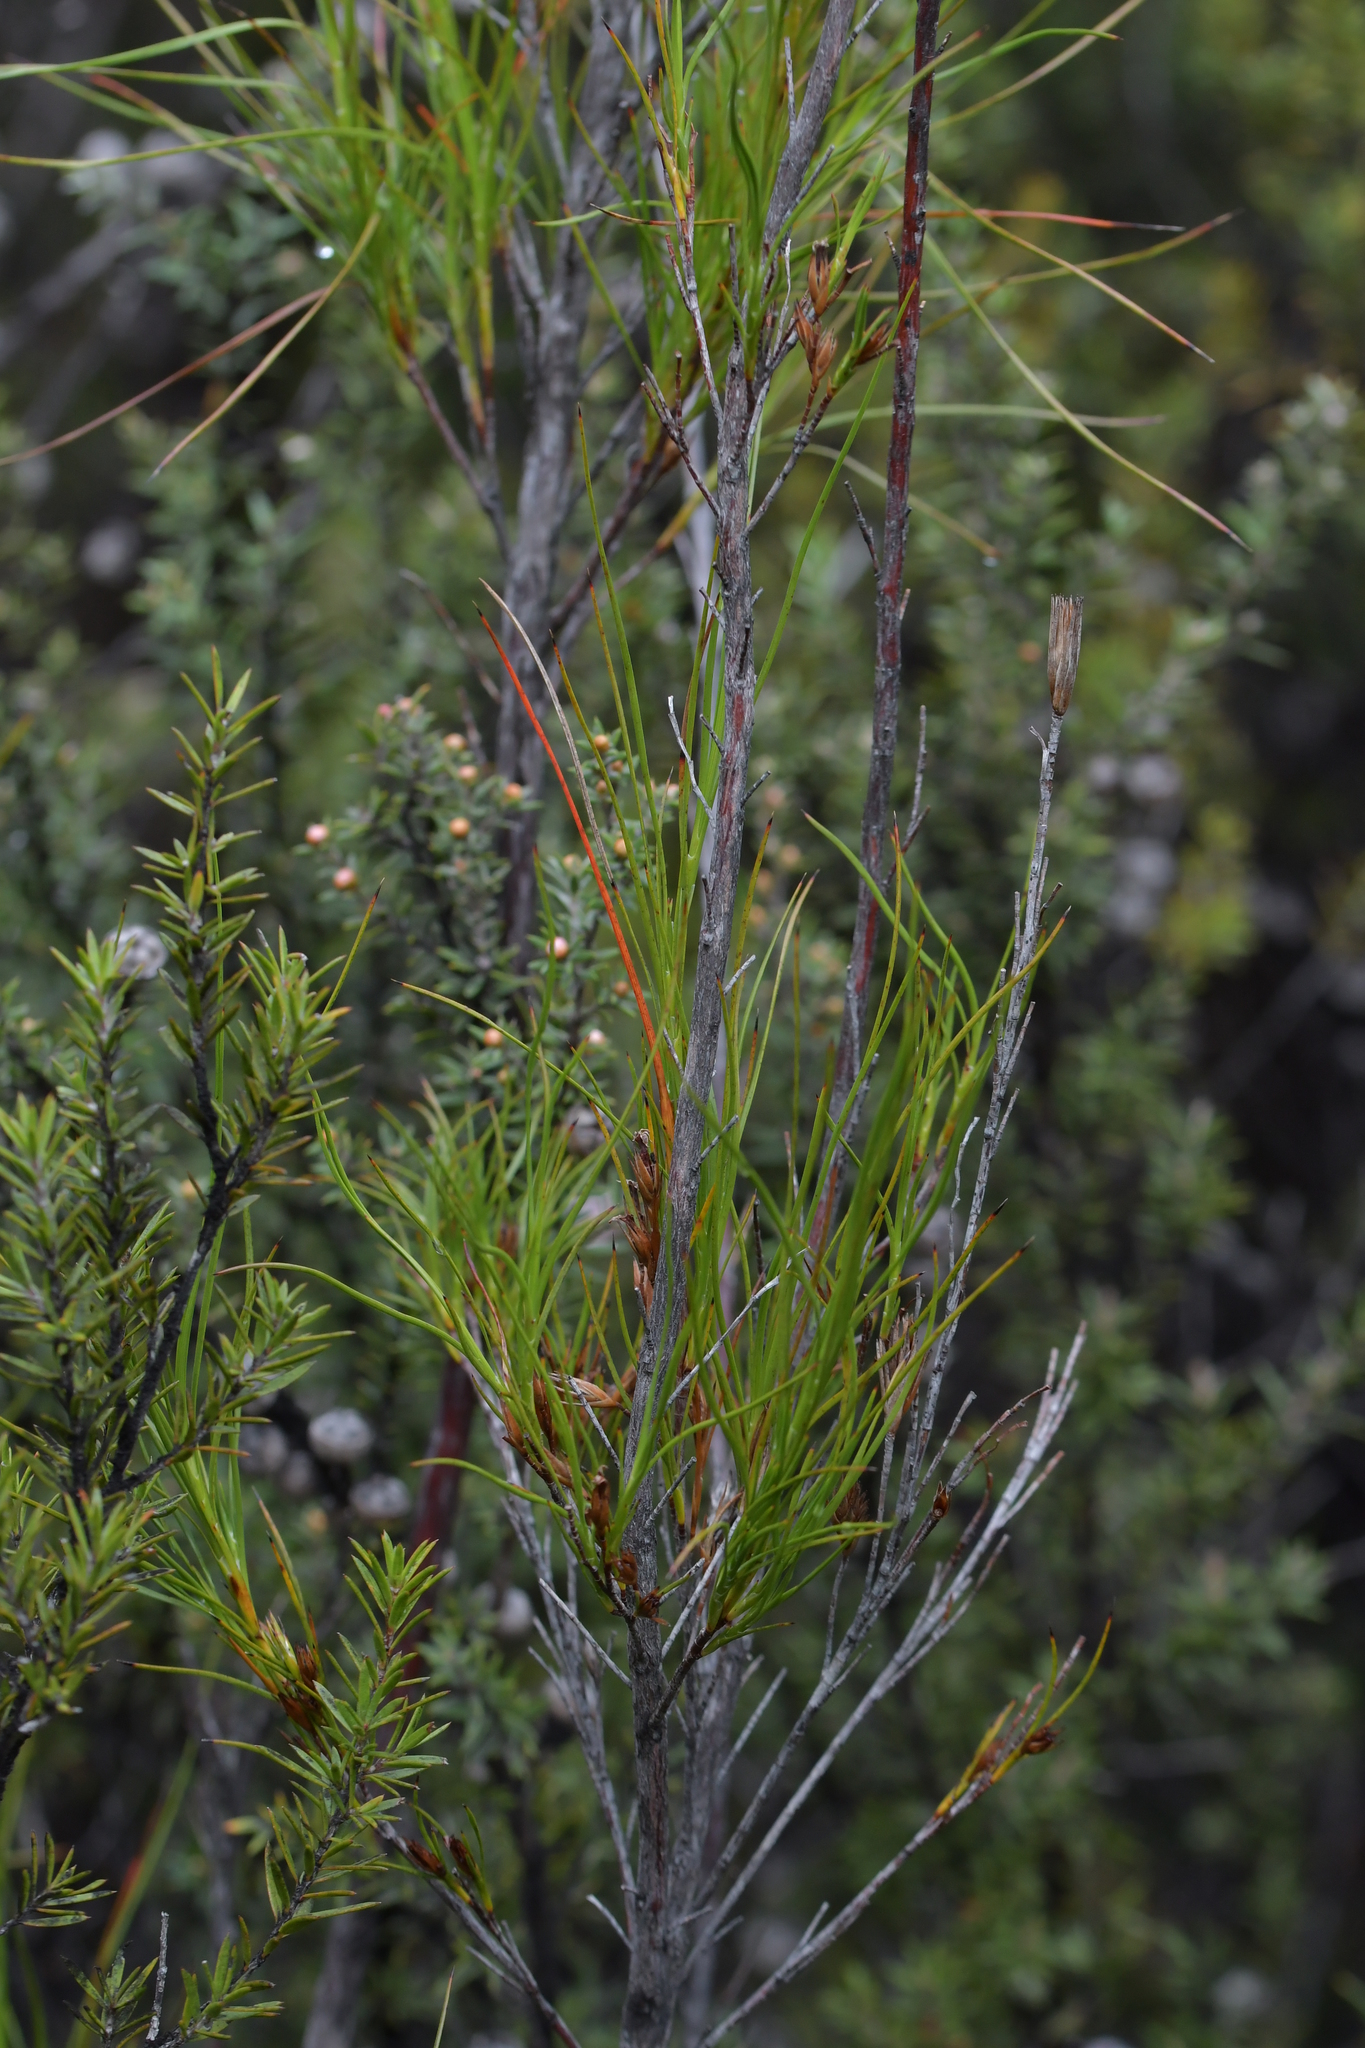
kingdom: Plantae
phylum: Tracheophyta
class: Magnoliopsida
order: Ericales
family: Ericaceae
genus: Dracophyllum
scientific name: Dracophyllum lessonianum
